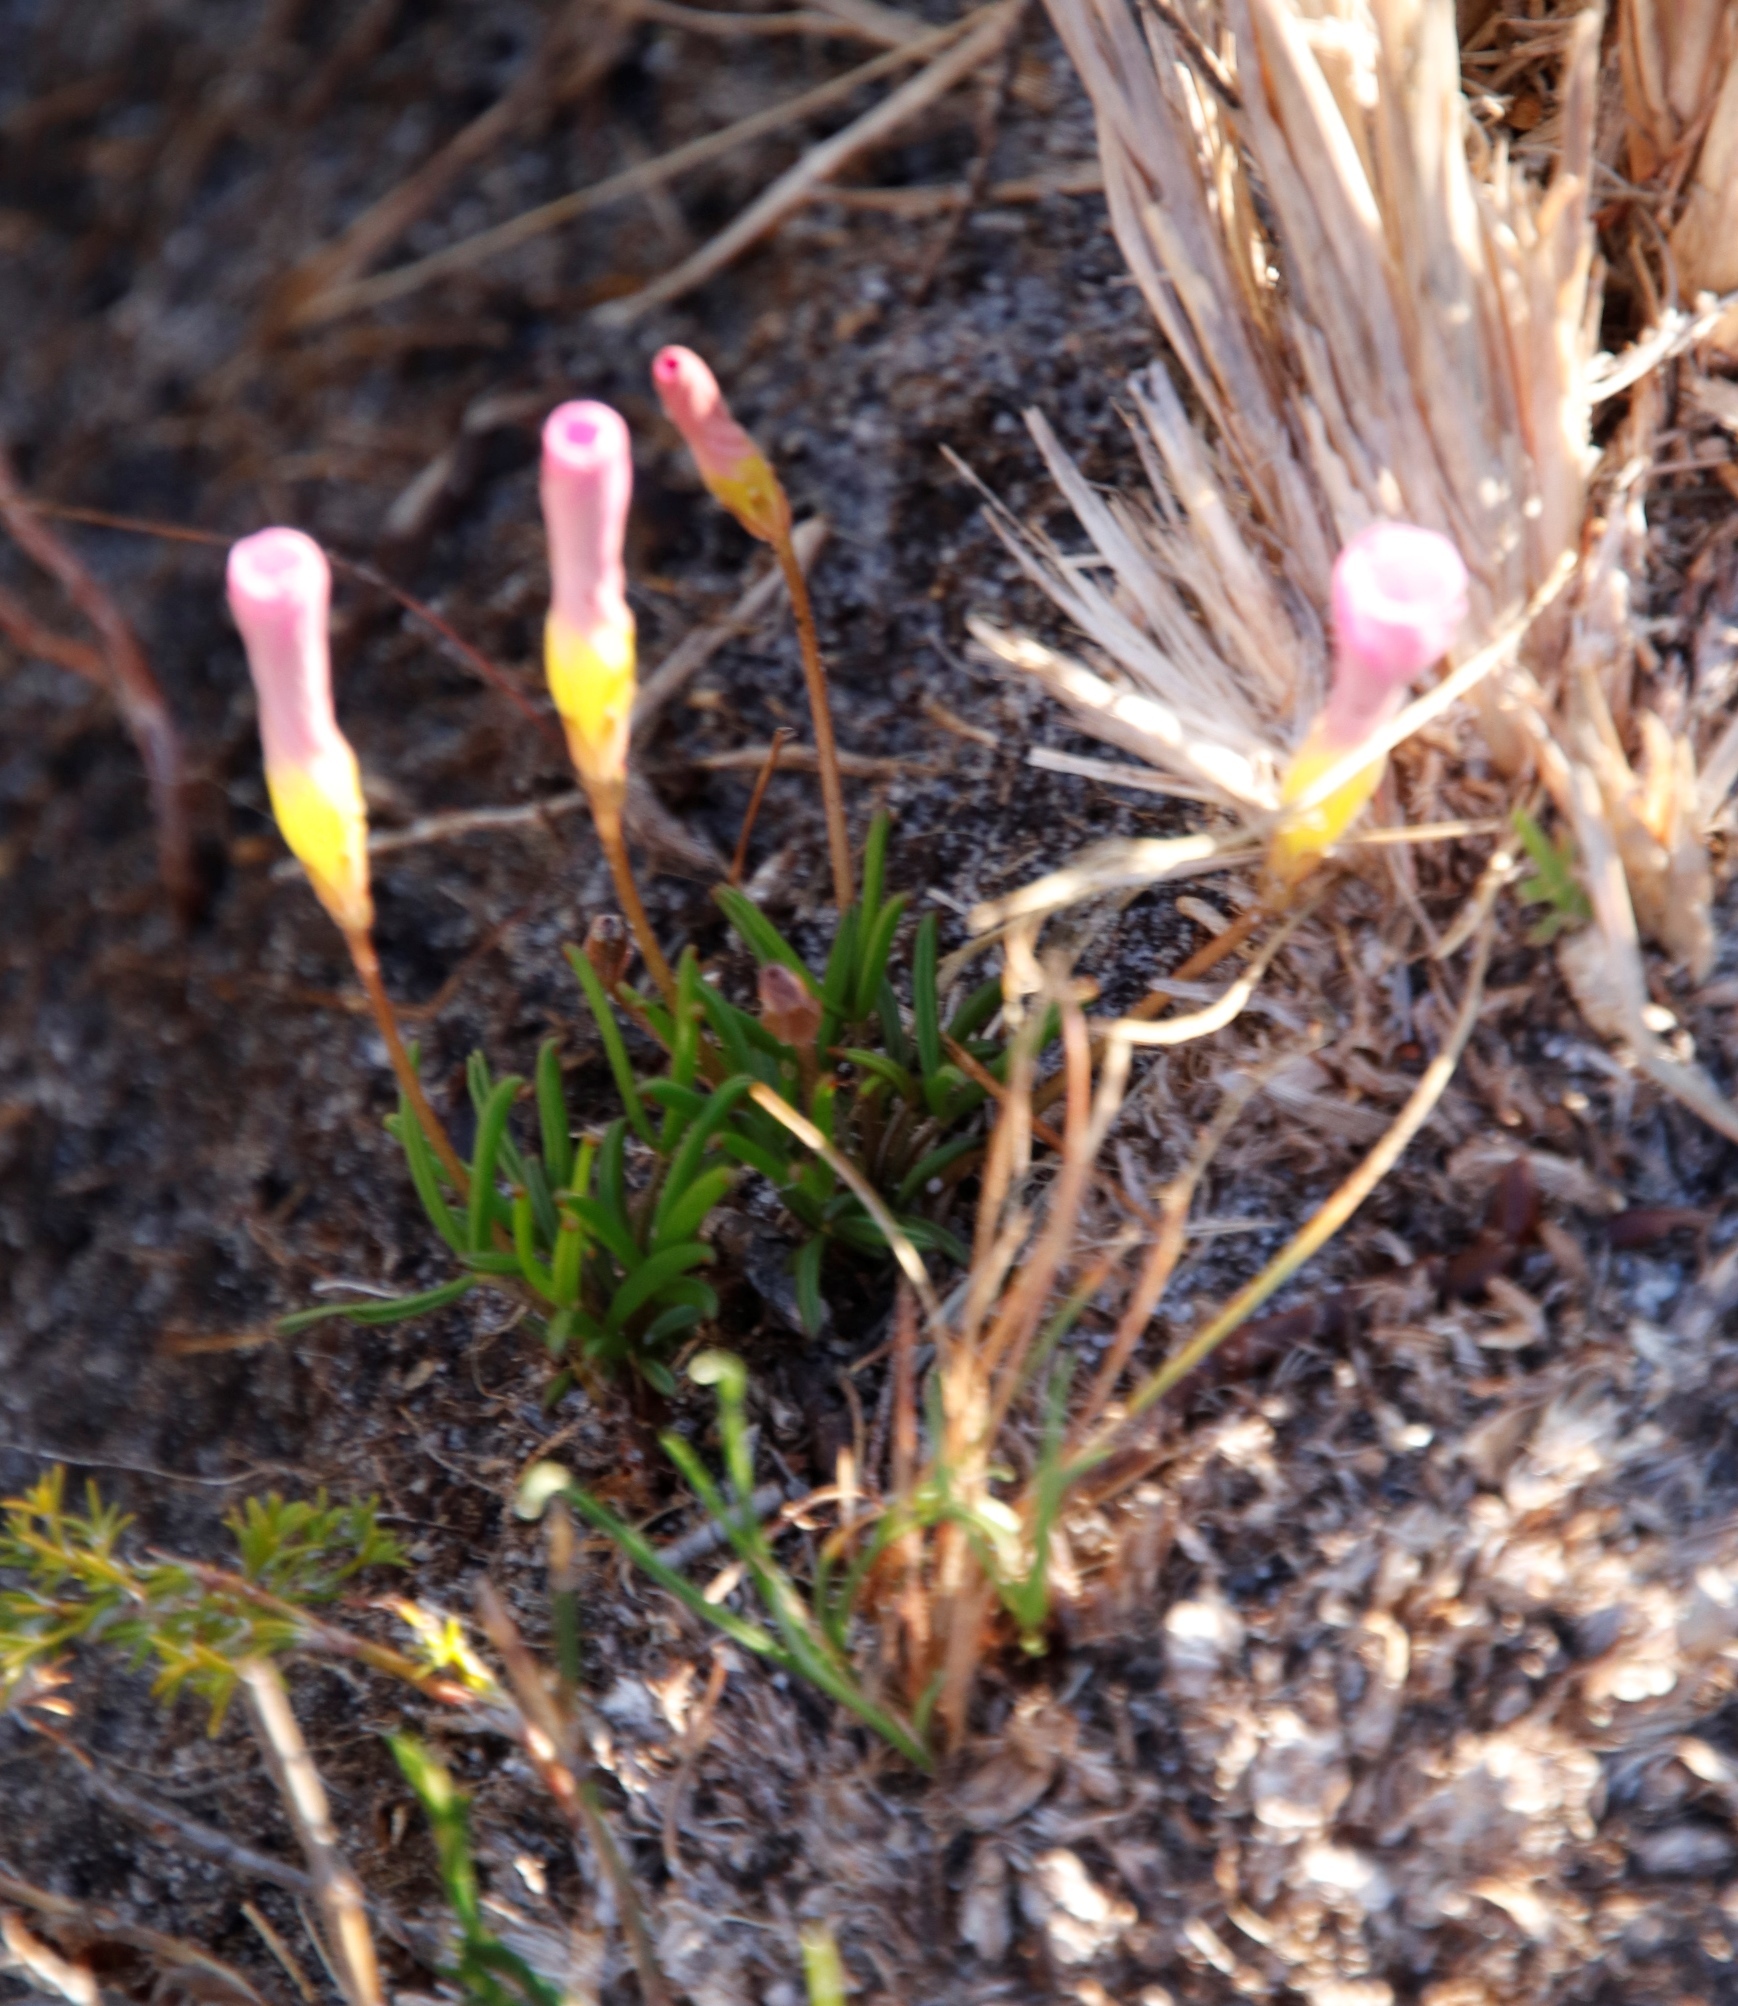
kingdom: Plantae
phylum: Tracheophyta
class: Magnoliopsida
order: Oxalidales
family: Oxalidaceae
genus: Oxalis
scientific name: Oxalis polyphylla
